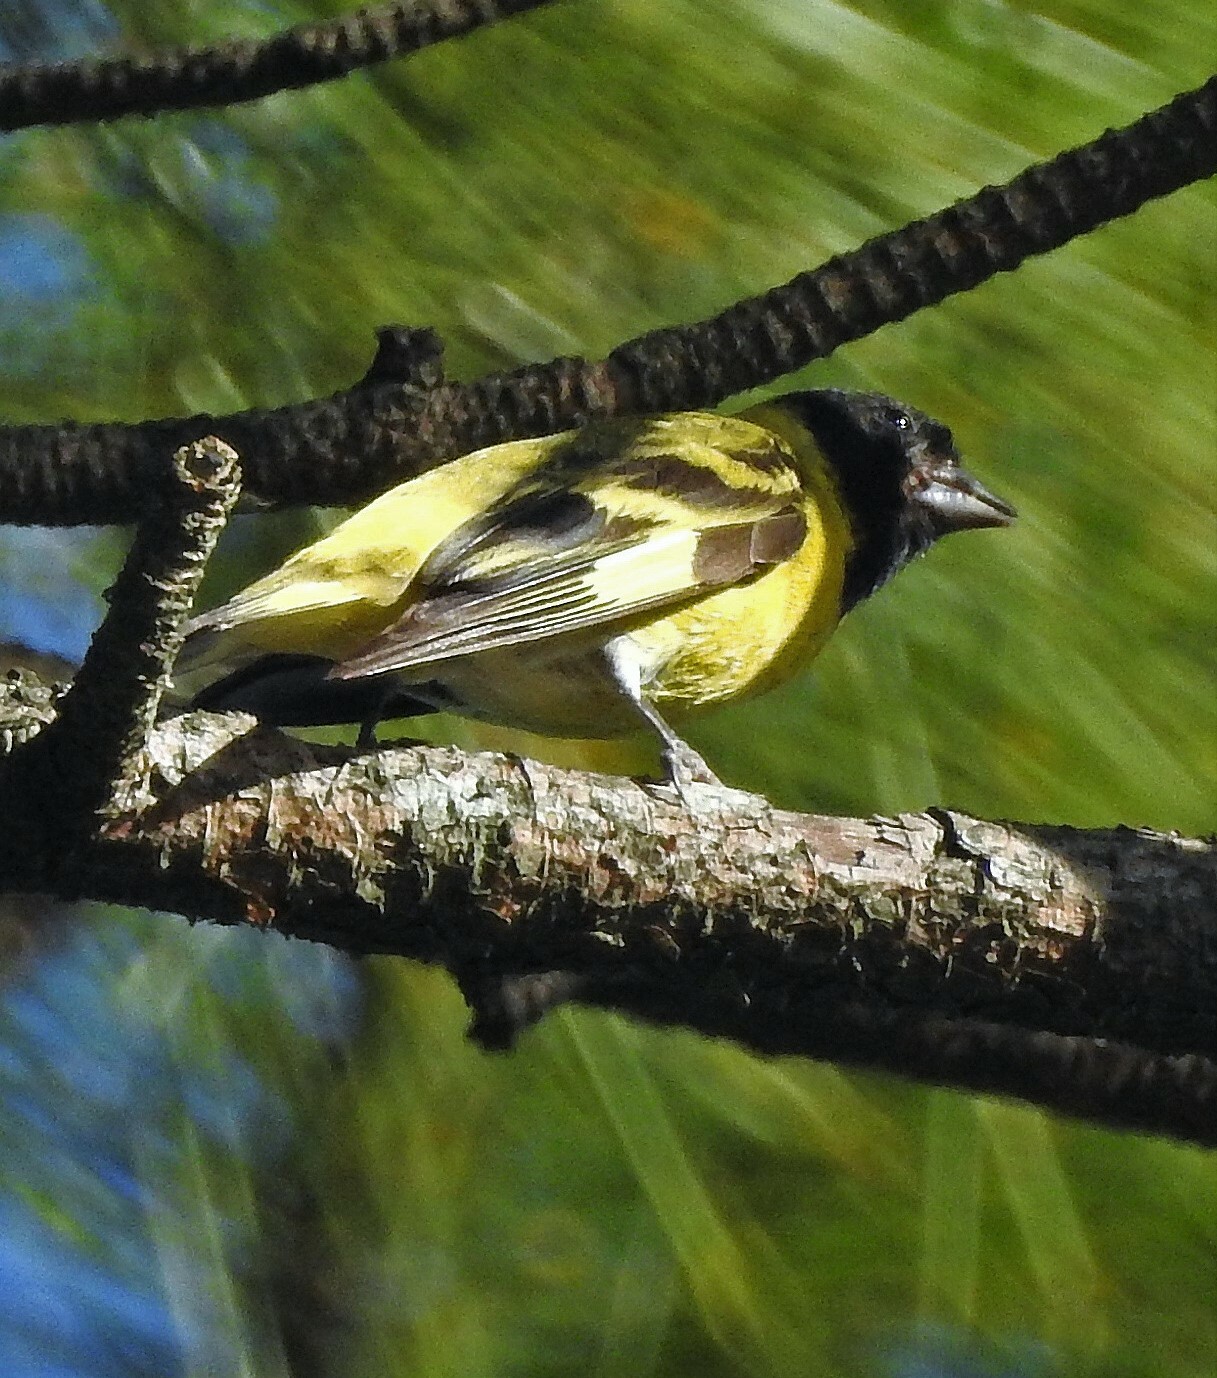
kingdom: Animalia
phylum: Chordata
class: Aves
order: Passeriformes
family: Fringillidae
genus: Spinus
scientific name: Spinus magellanicus
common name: Hooded siskin
